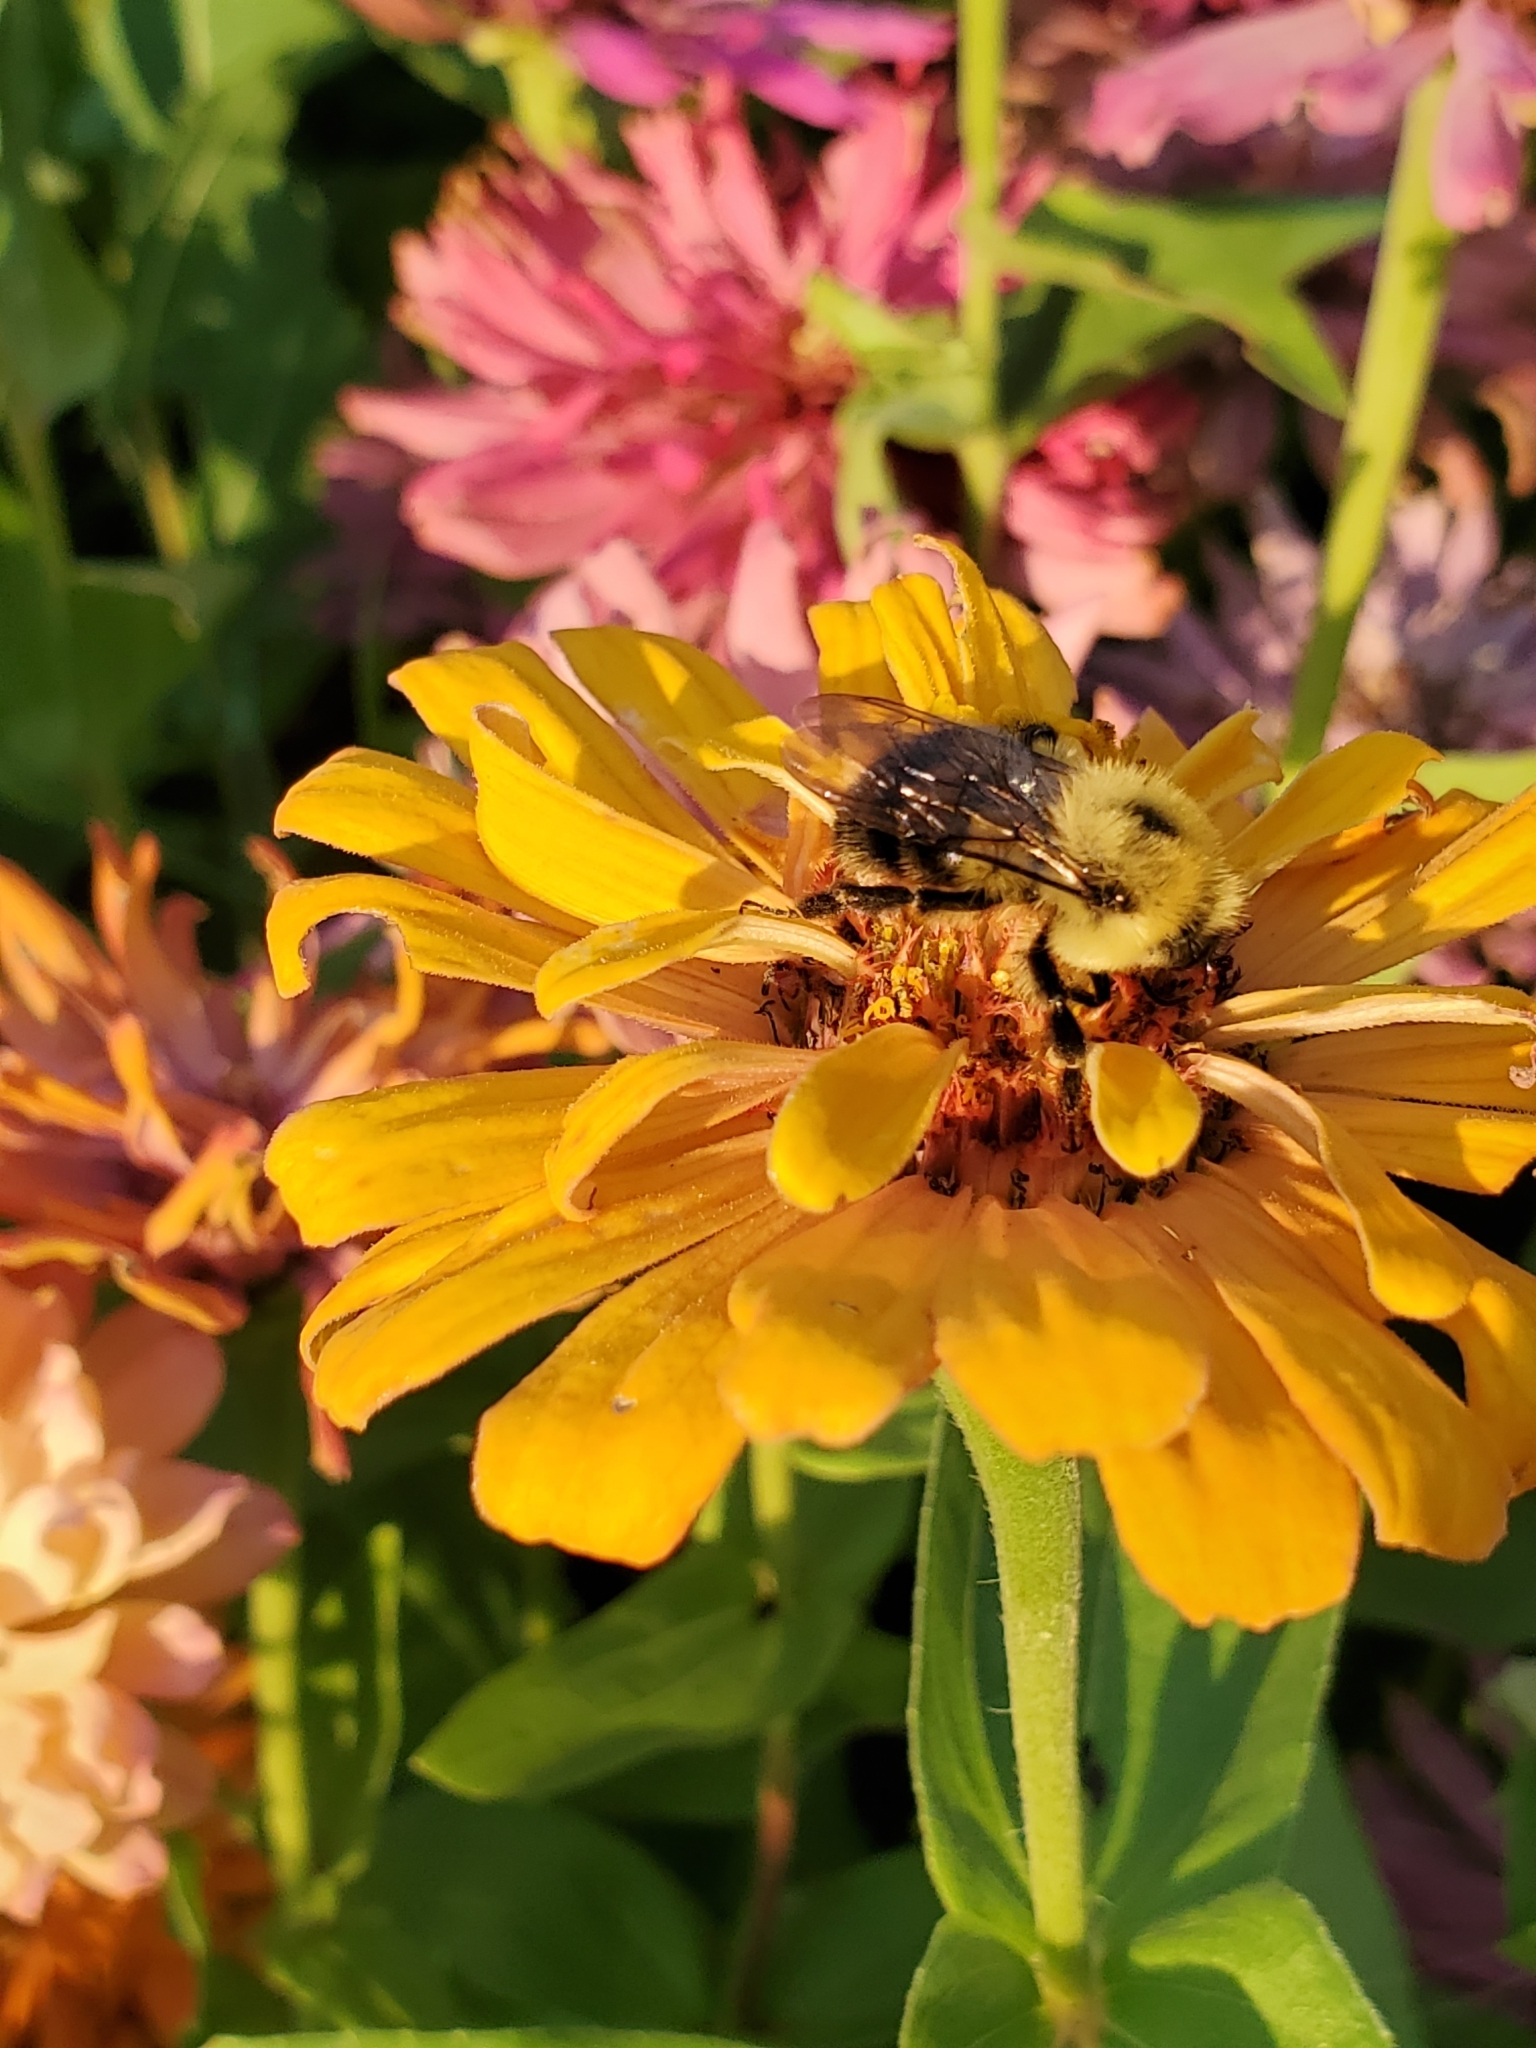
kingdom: Animalia
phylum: Arthropoda
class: Insecta
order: Hymenoptera
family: Apidae
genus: Bombus
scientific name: Bombus bimaculatus
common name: Two-spotted bumble bee
